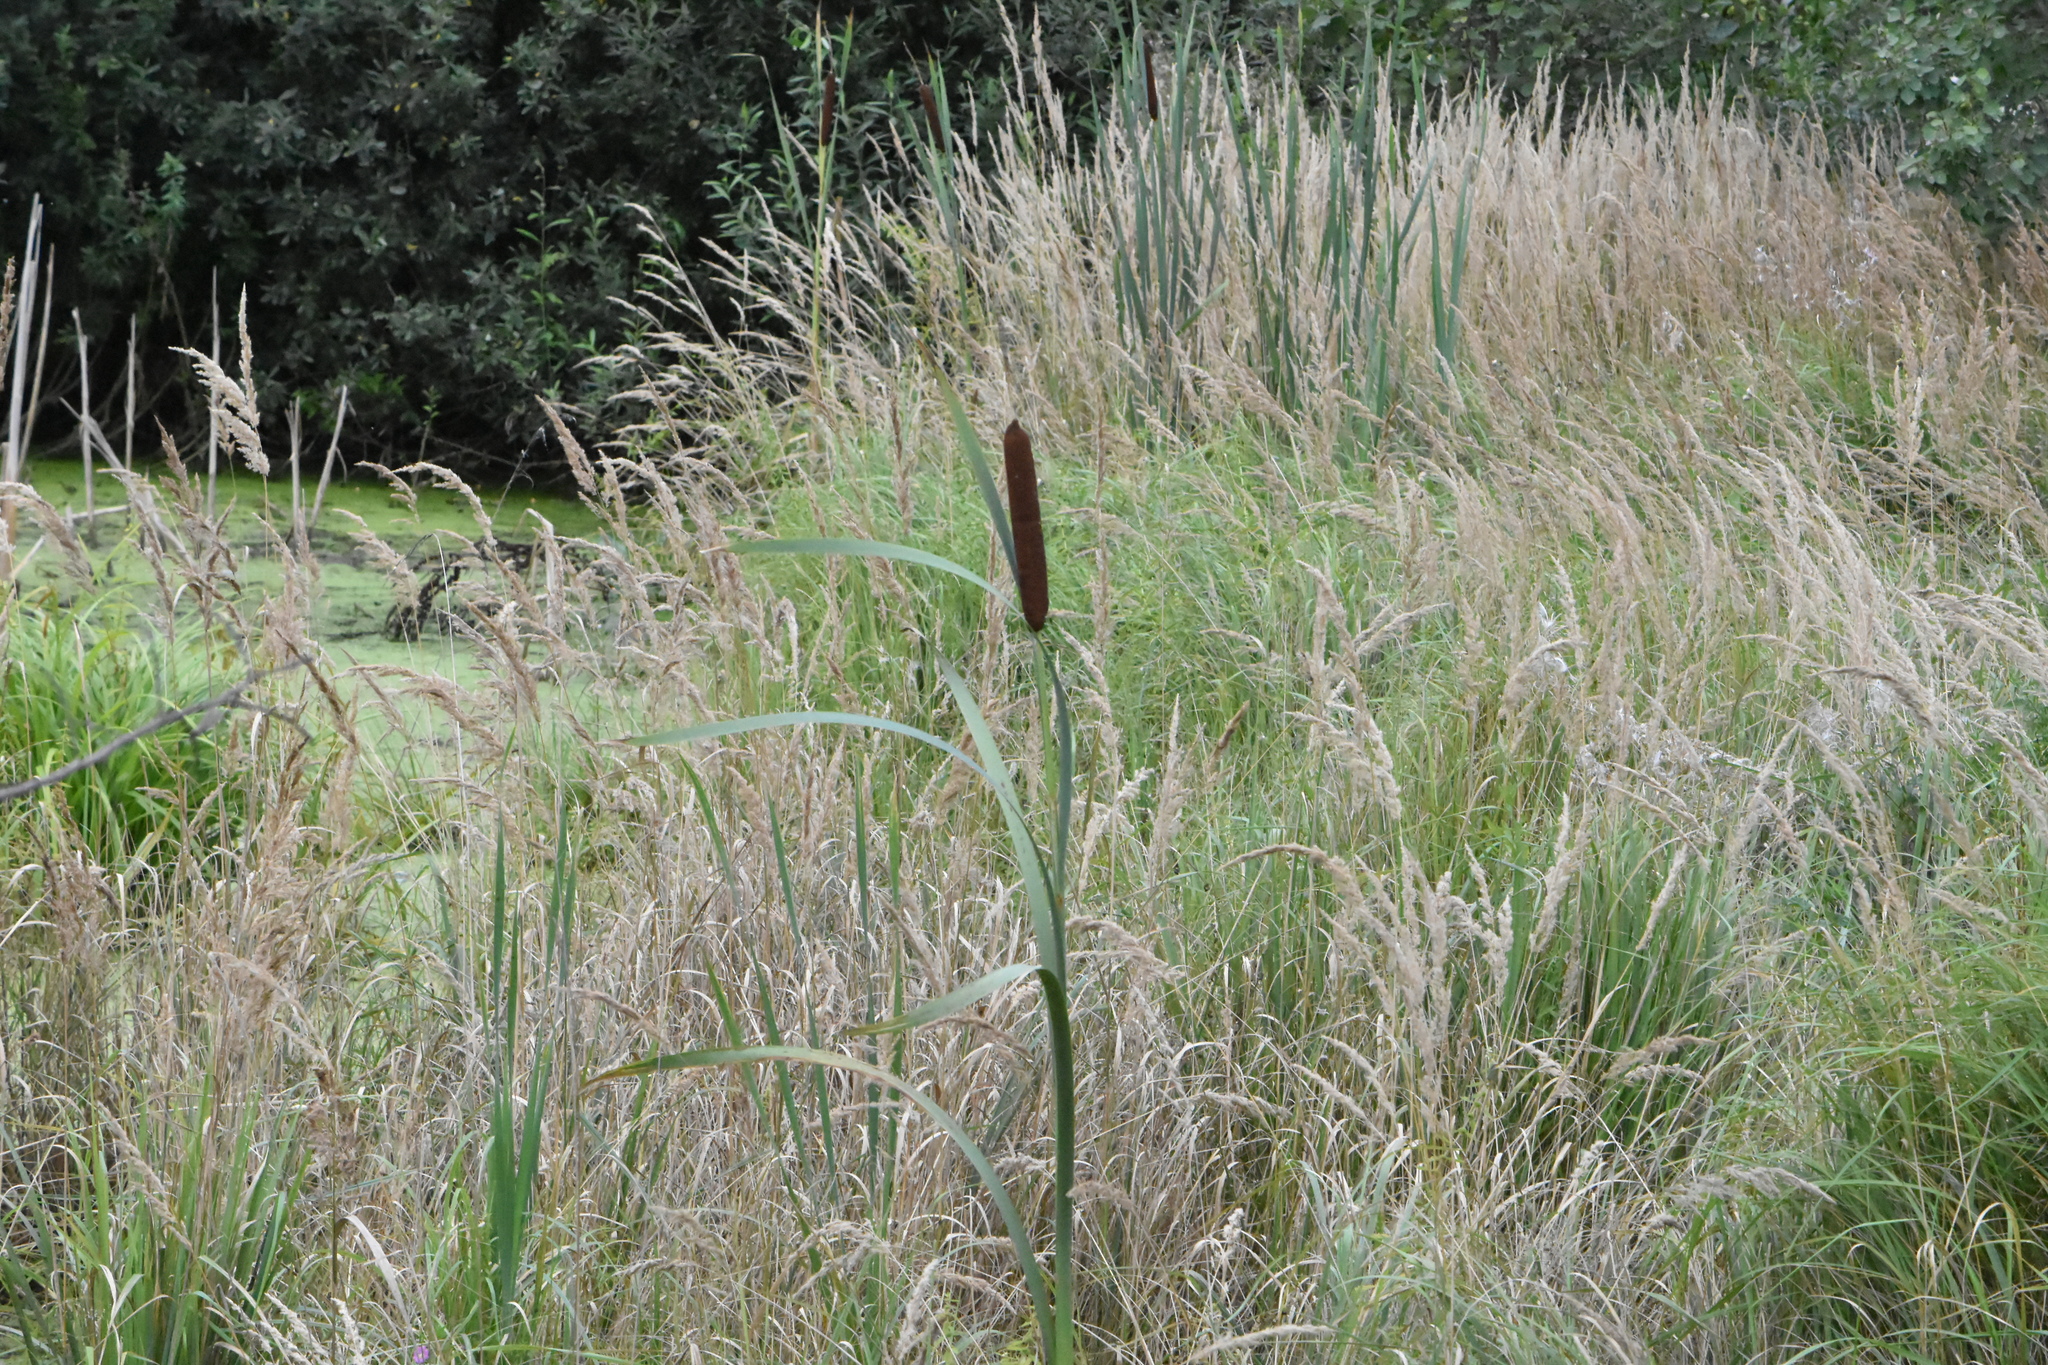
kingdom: Plantae
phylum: Tracheophyta
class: Liliopsida
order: Poales
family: Typhaceae
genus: Typha
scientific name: Typha latifolia
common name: Broadleaf cattail
